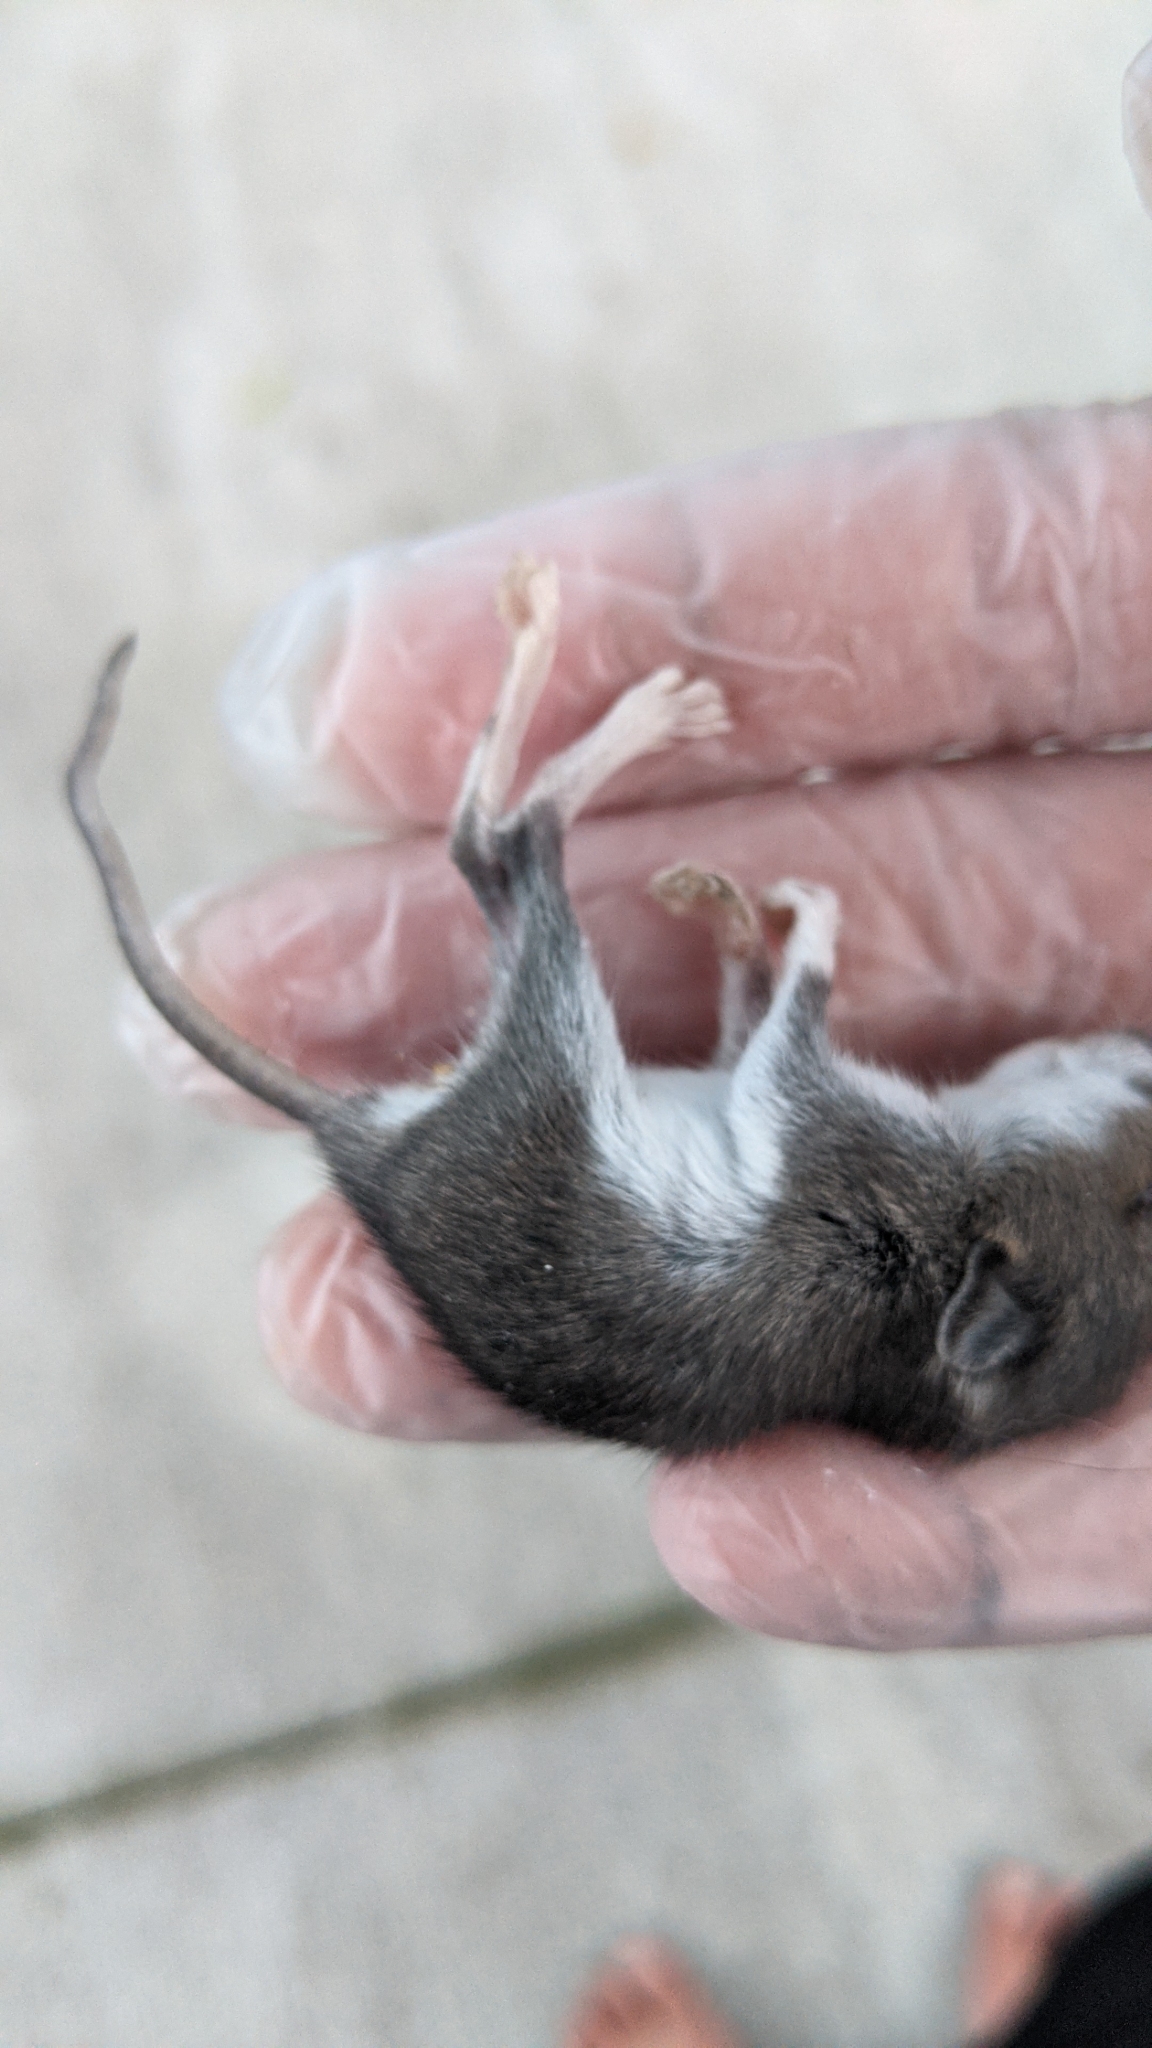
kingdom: Animalia
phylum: Chordata
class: Mammalia
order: Rodentia
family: Cricetidae
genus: Peromyscus
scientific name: Peromyscus leucopus
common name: White-footed deermouse
